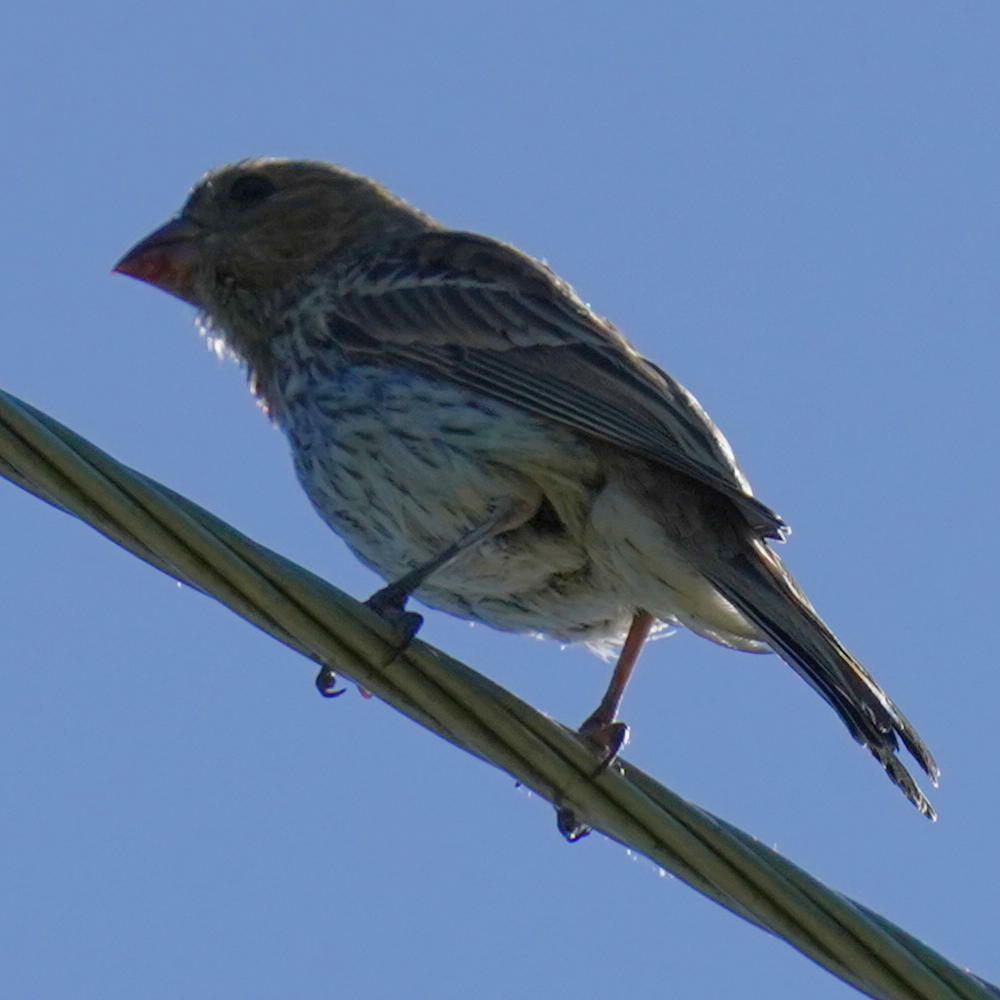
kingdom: Animalia
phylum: Chordata
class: Aves
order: Passeriformes
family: Fringillidae
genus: Haemorhous
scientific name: Haemorhous mexicanus
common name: House finch
